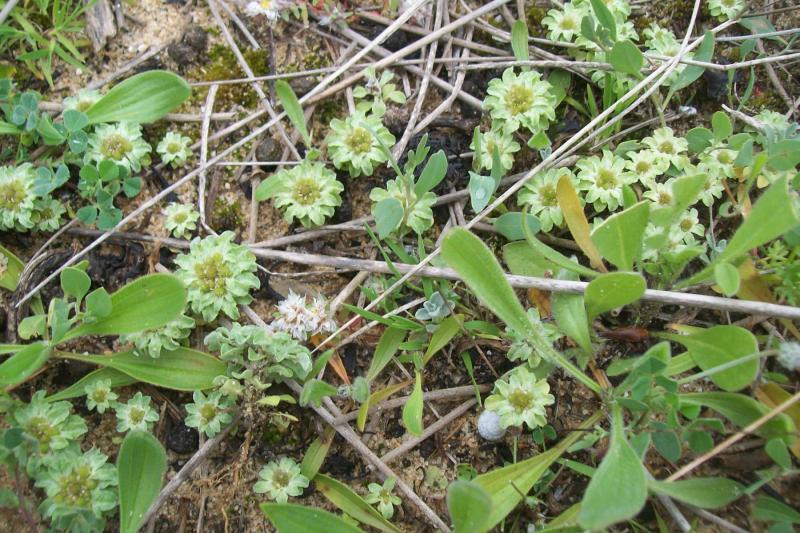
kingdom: Plantae
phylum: Tracheophyta
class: Magnoliopsida
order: Asterales
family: Asteraceae
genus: Filago
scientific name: Filago pygmaea
